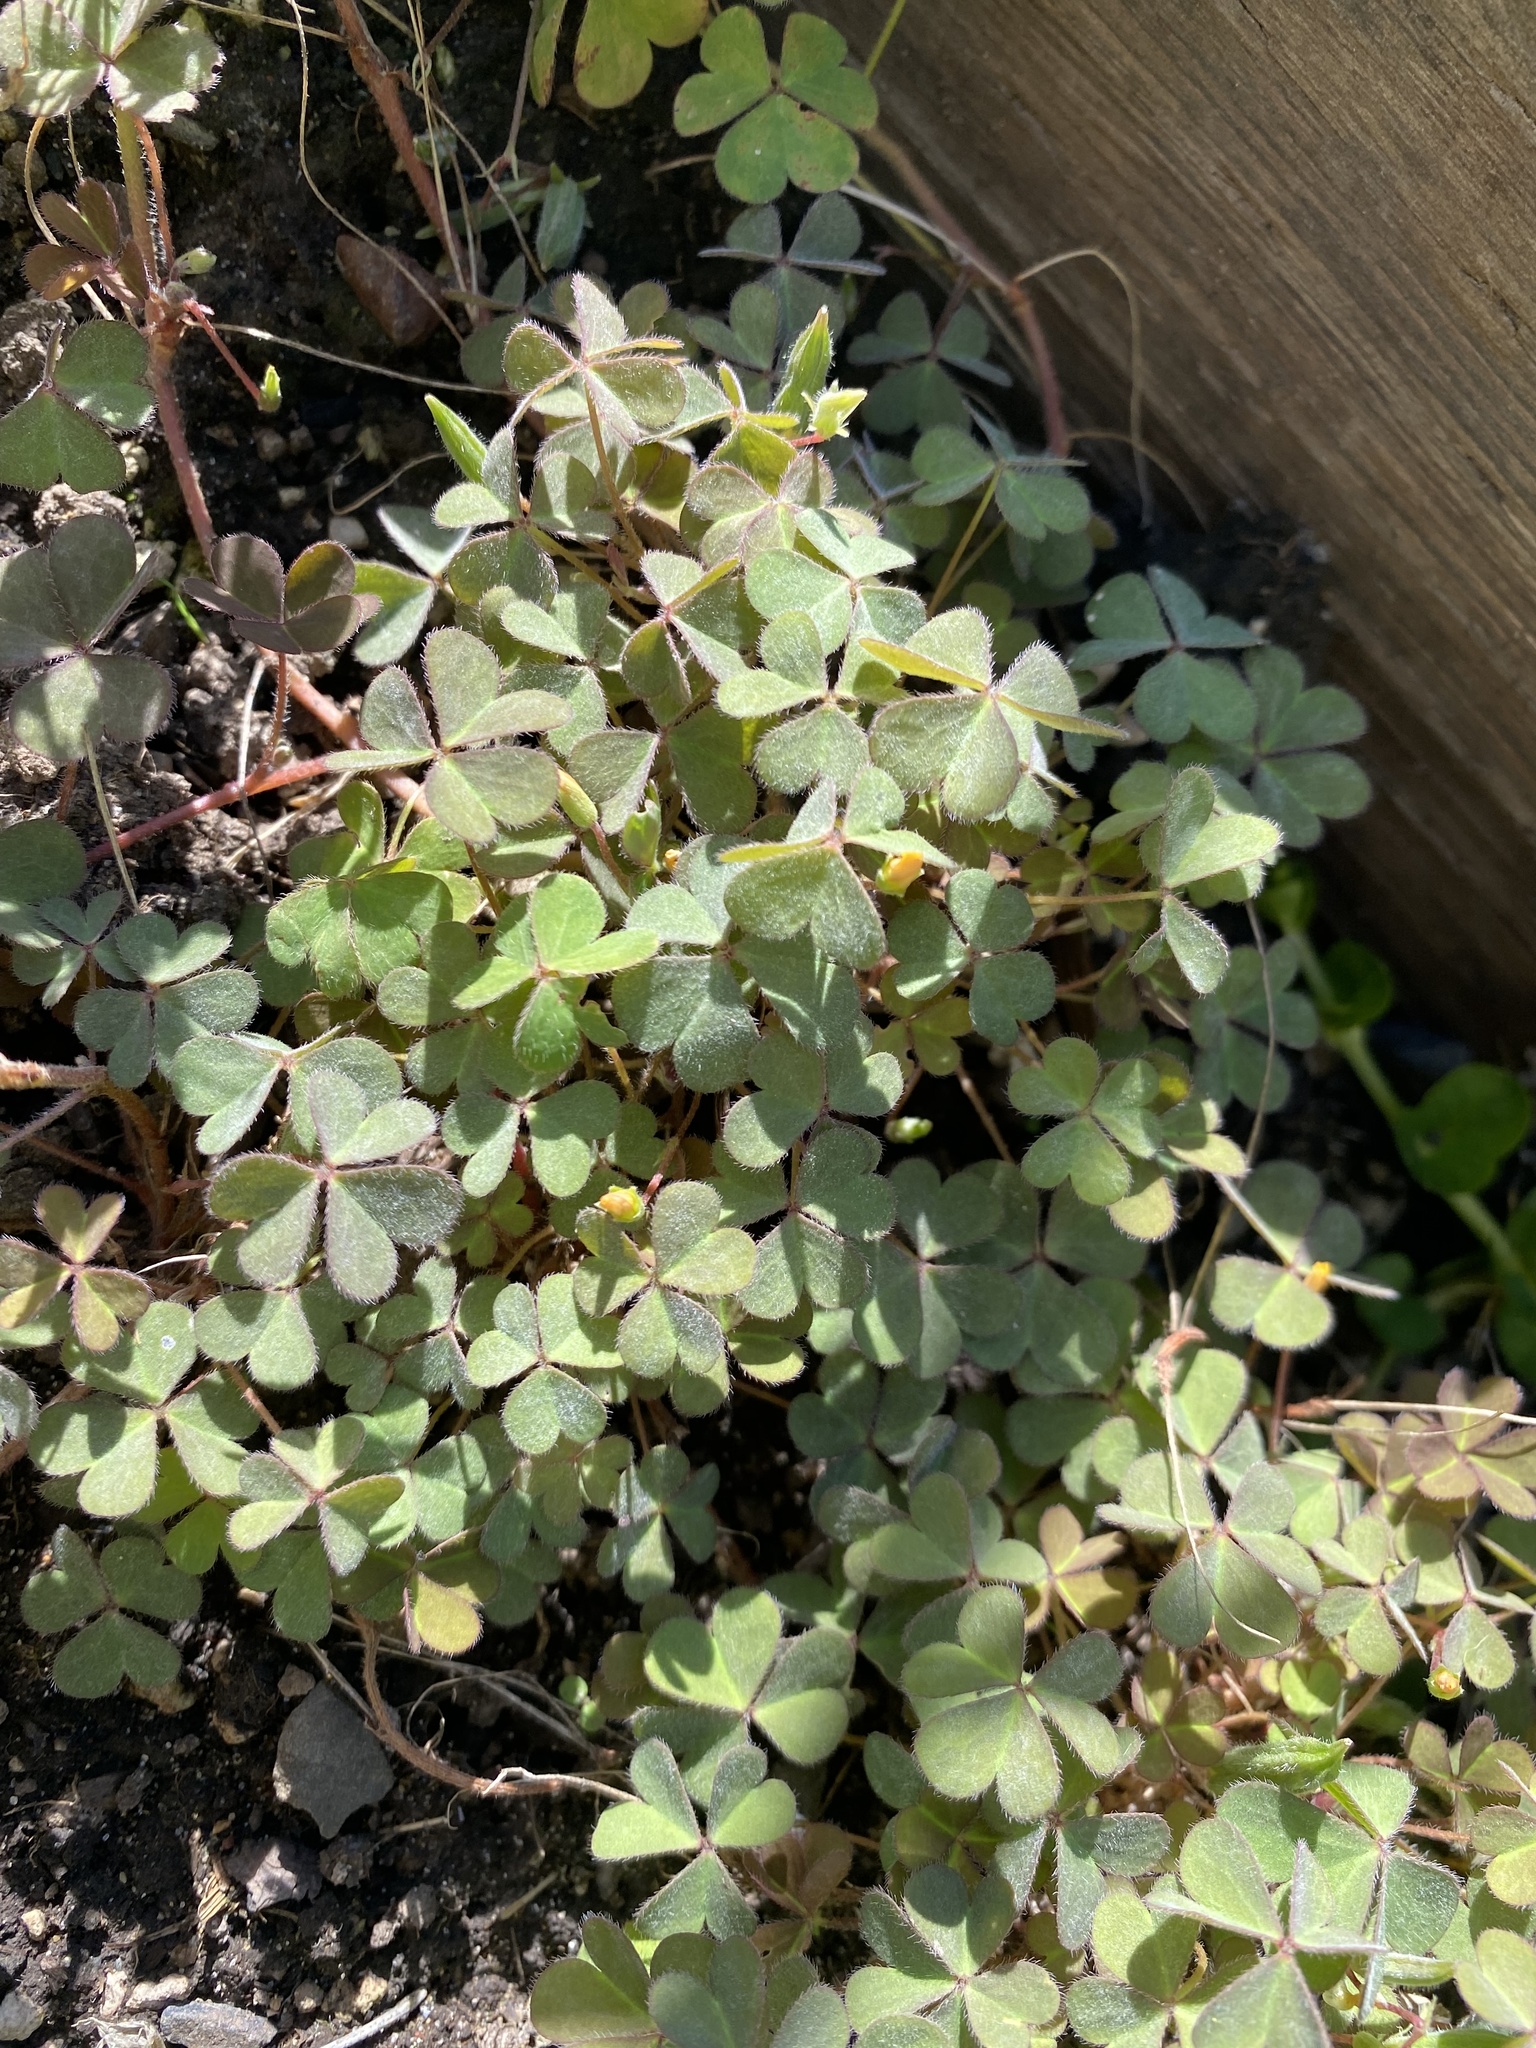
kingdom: Plantae
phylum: Tracheophyta
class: Magnoliopsida
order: Oxalidales
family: Oxalidaceae
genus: Oxalis
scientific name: Oxalis corniculata
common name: Procumbent yellow-sorrel
